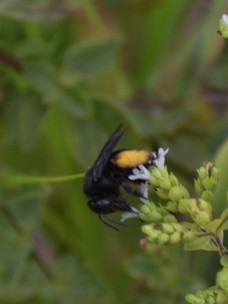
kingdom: Animalia
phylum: Arthropoda
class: Insecta
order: Hymenoptera
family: Apidae
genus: Melissodes
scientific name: Melissodes bimaculatus
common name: Two-spotted long-horned bee
